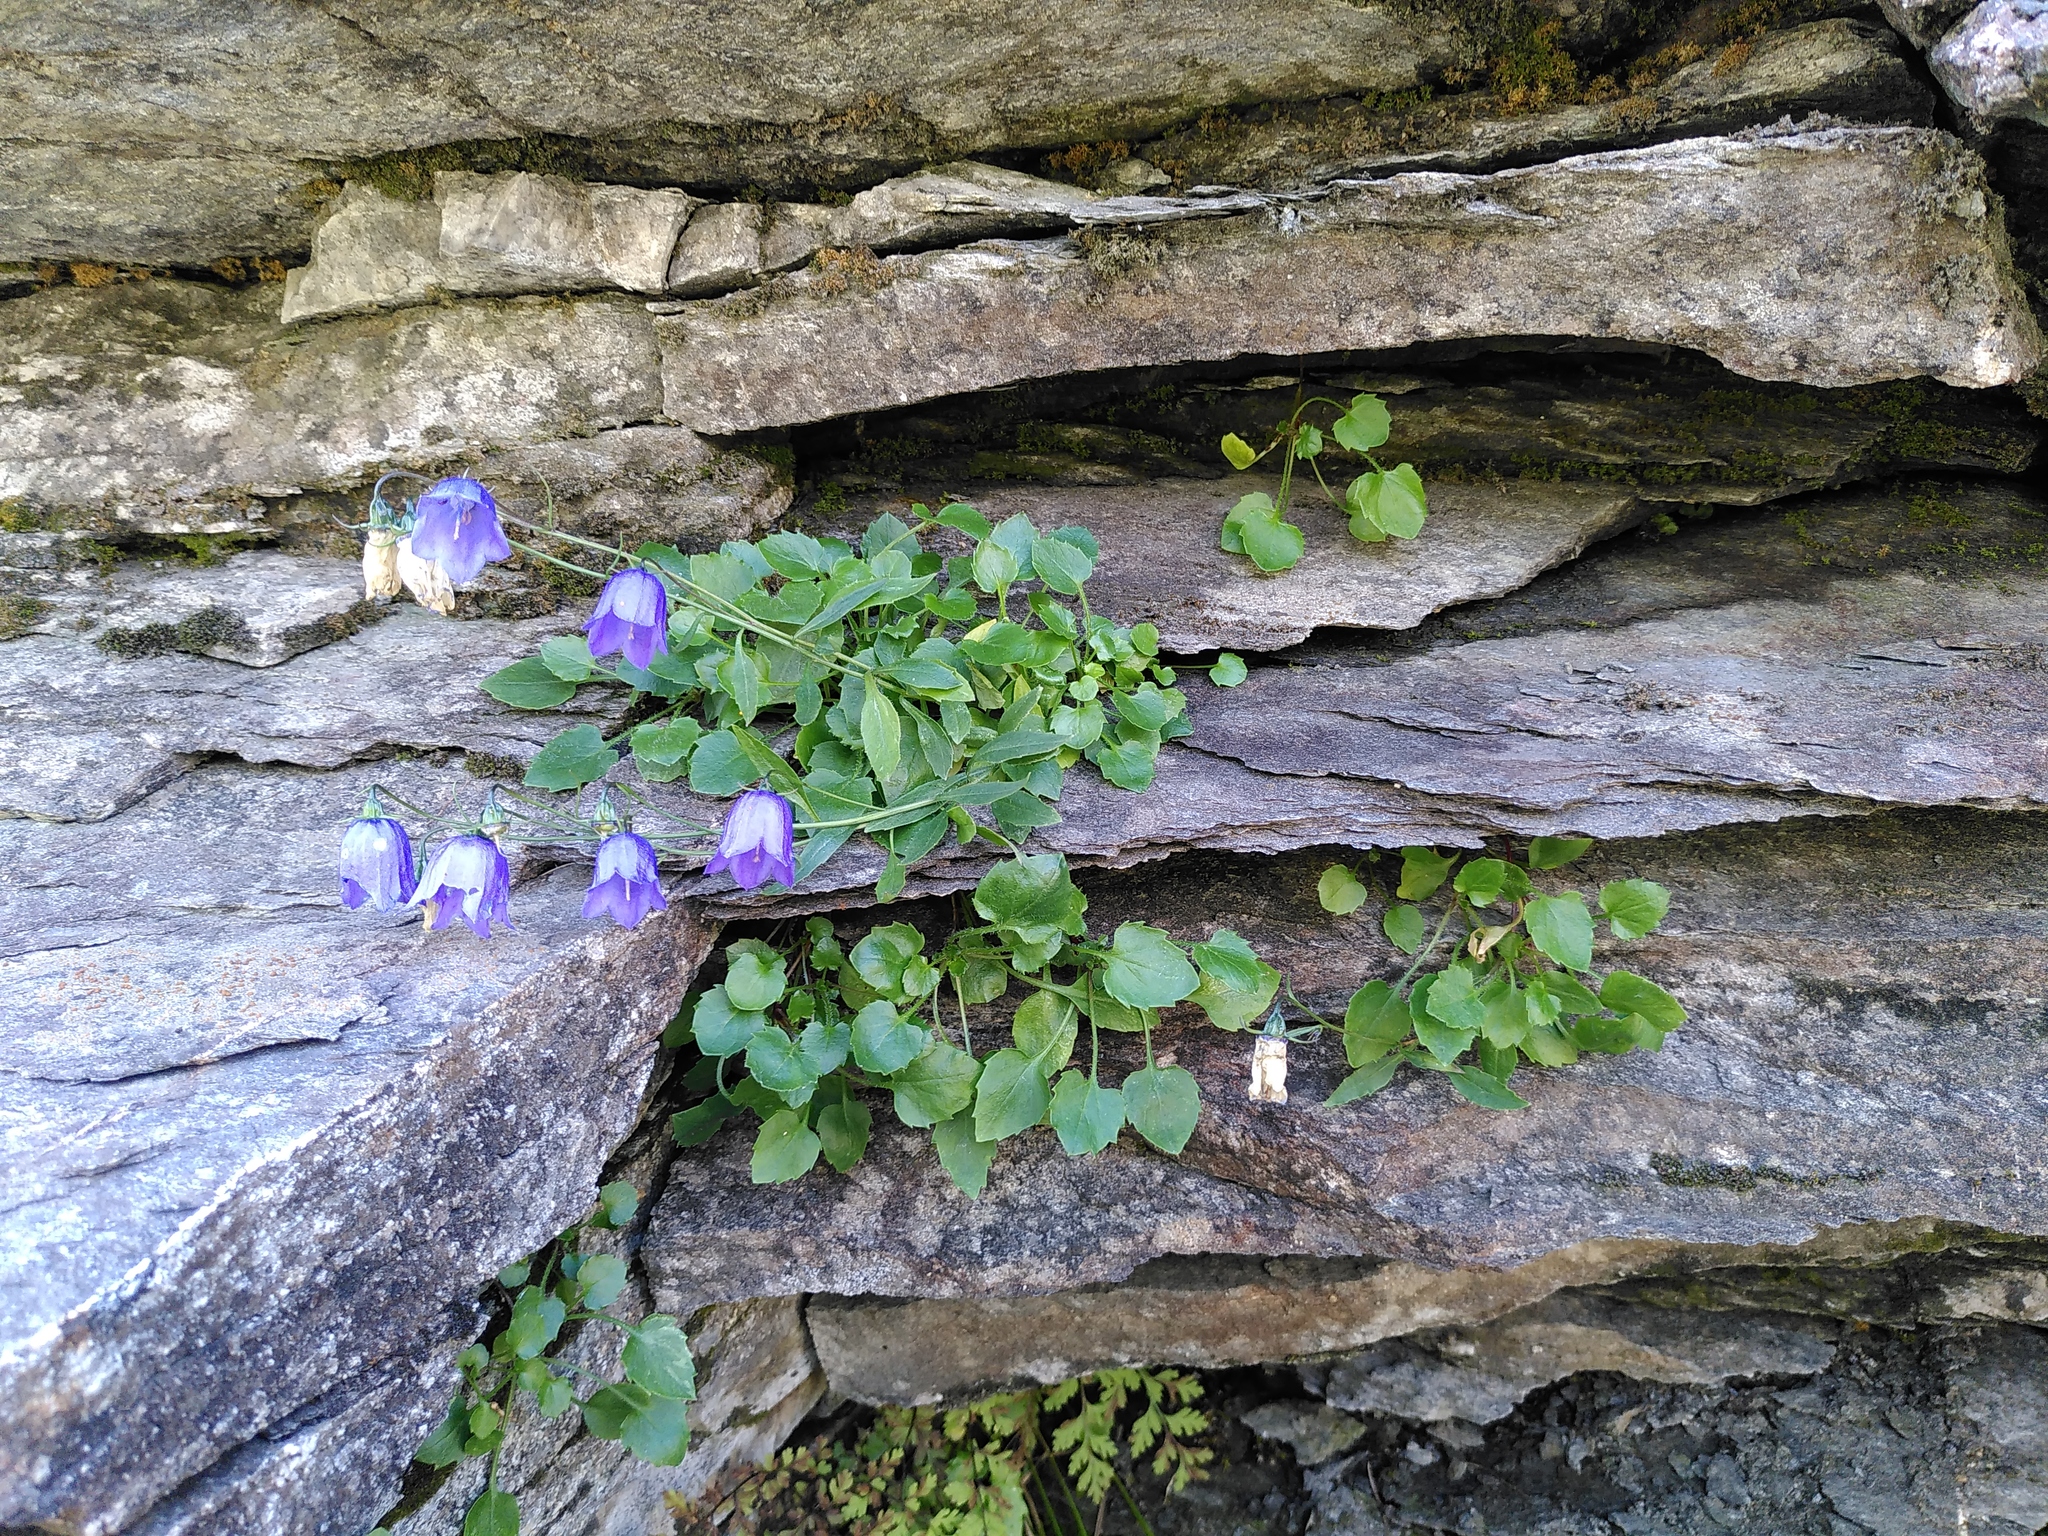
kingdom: Plantae
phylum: Tracheophyta
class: Magnoliopsida
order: Asterales
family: Campanulaceae
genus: Campanula
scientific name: Campanula cochleariifolia
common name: Fairies'-thimbles
